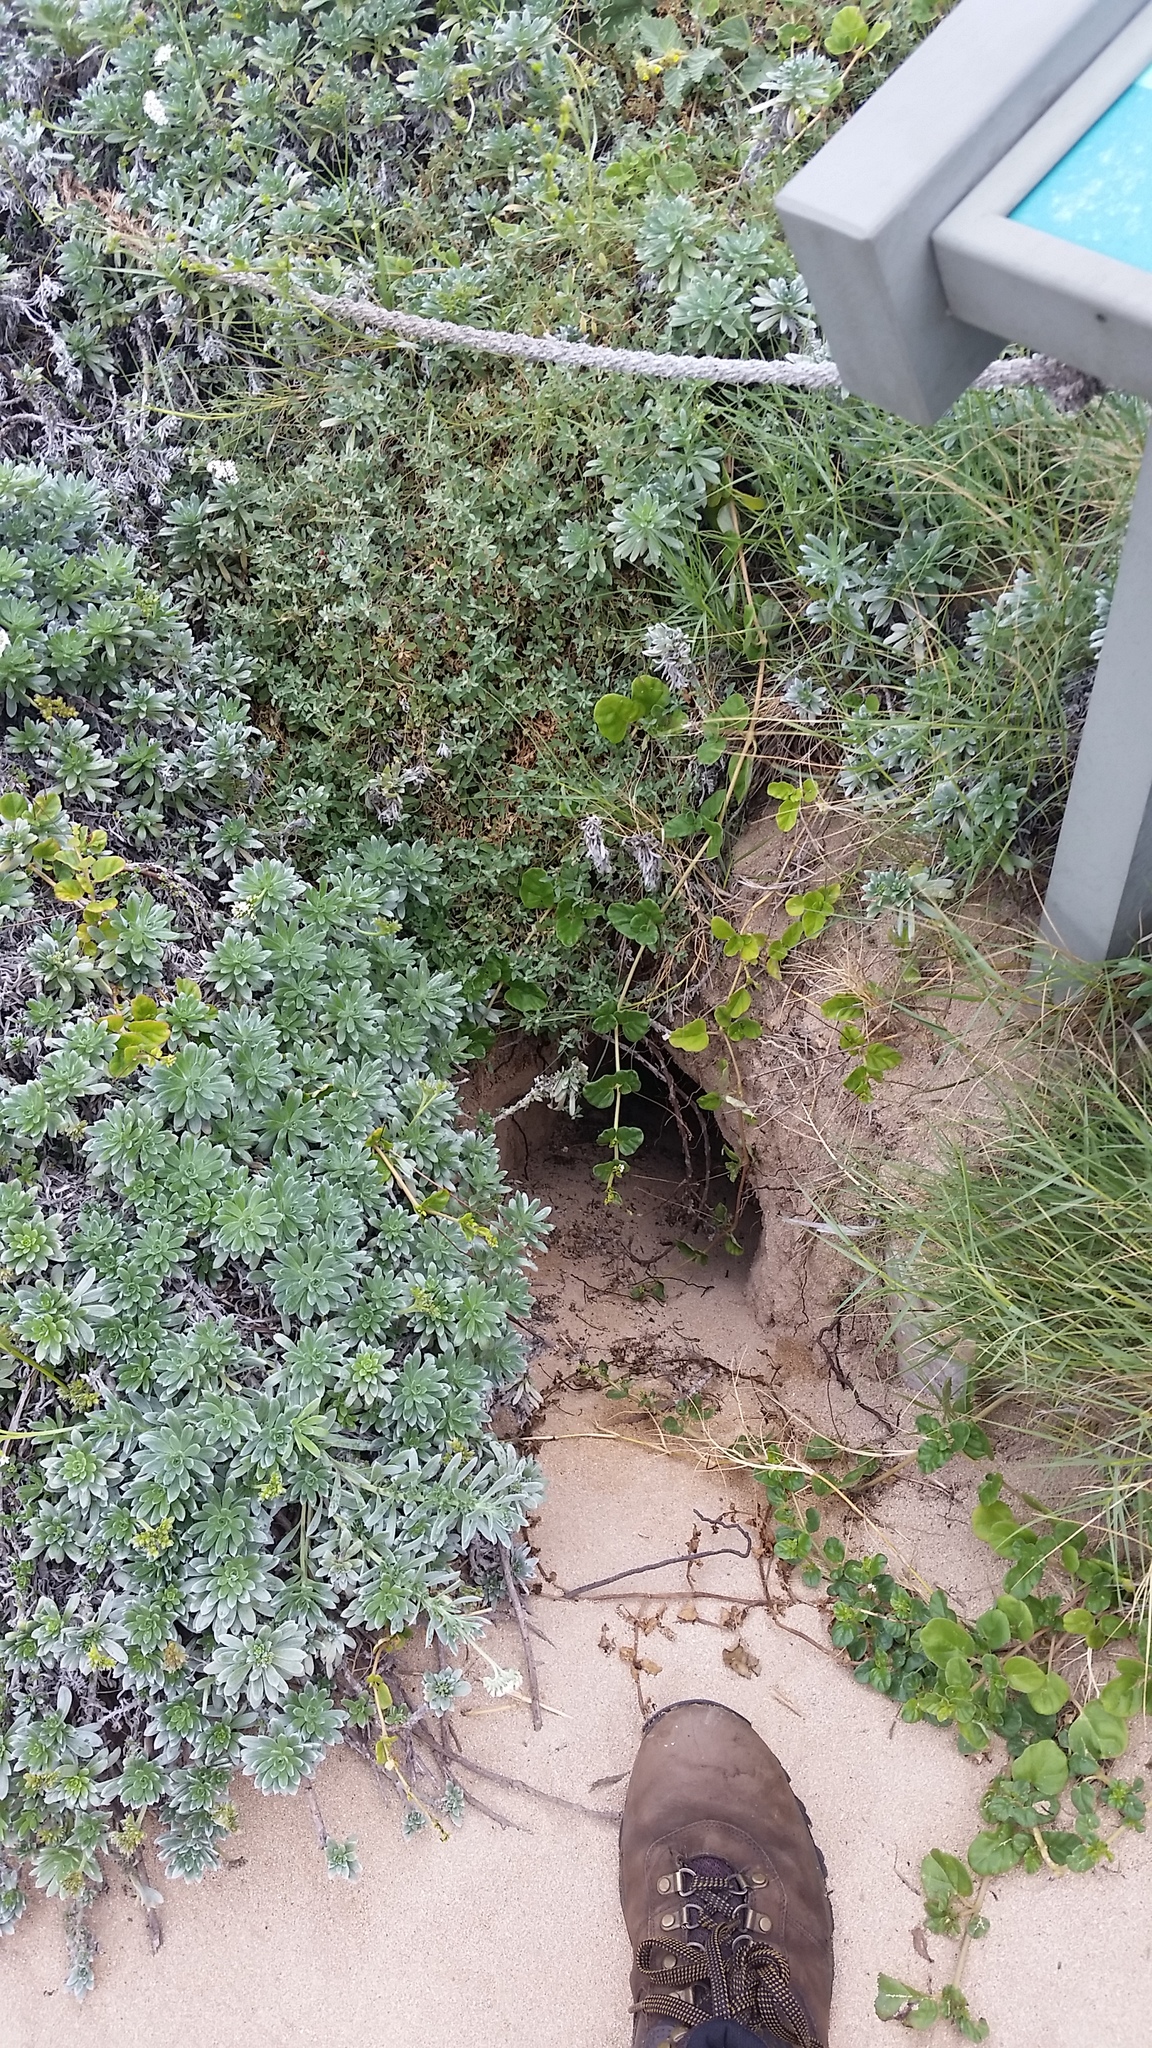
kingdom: Animalia
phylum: Chordata
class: Aves
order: Procellariiformes
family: Procellariidae
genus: Puffinus
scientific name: Puffinus pacificus
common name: Wedge-tailed shearwater
